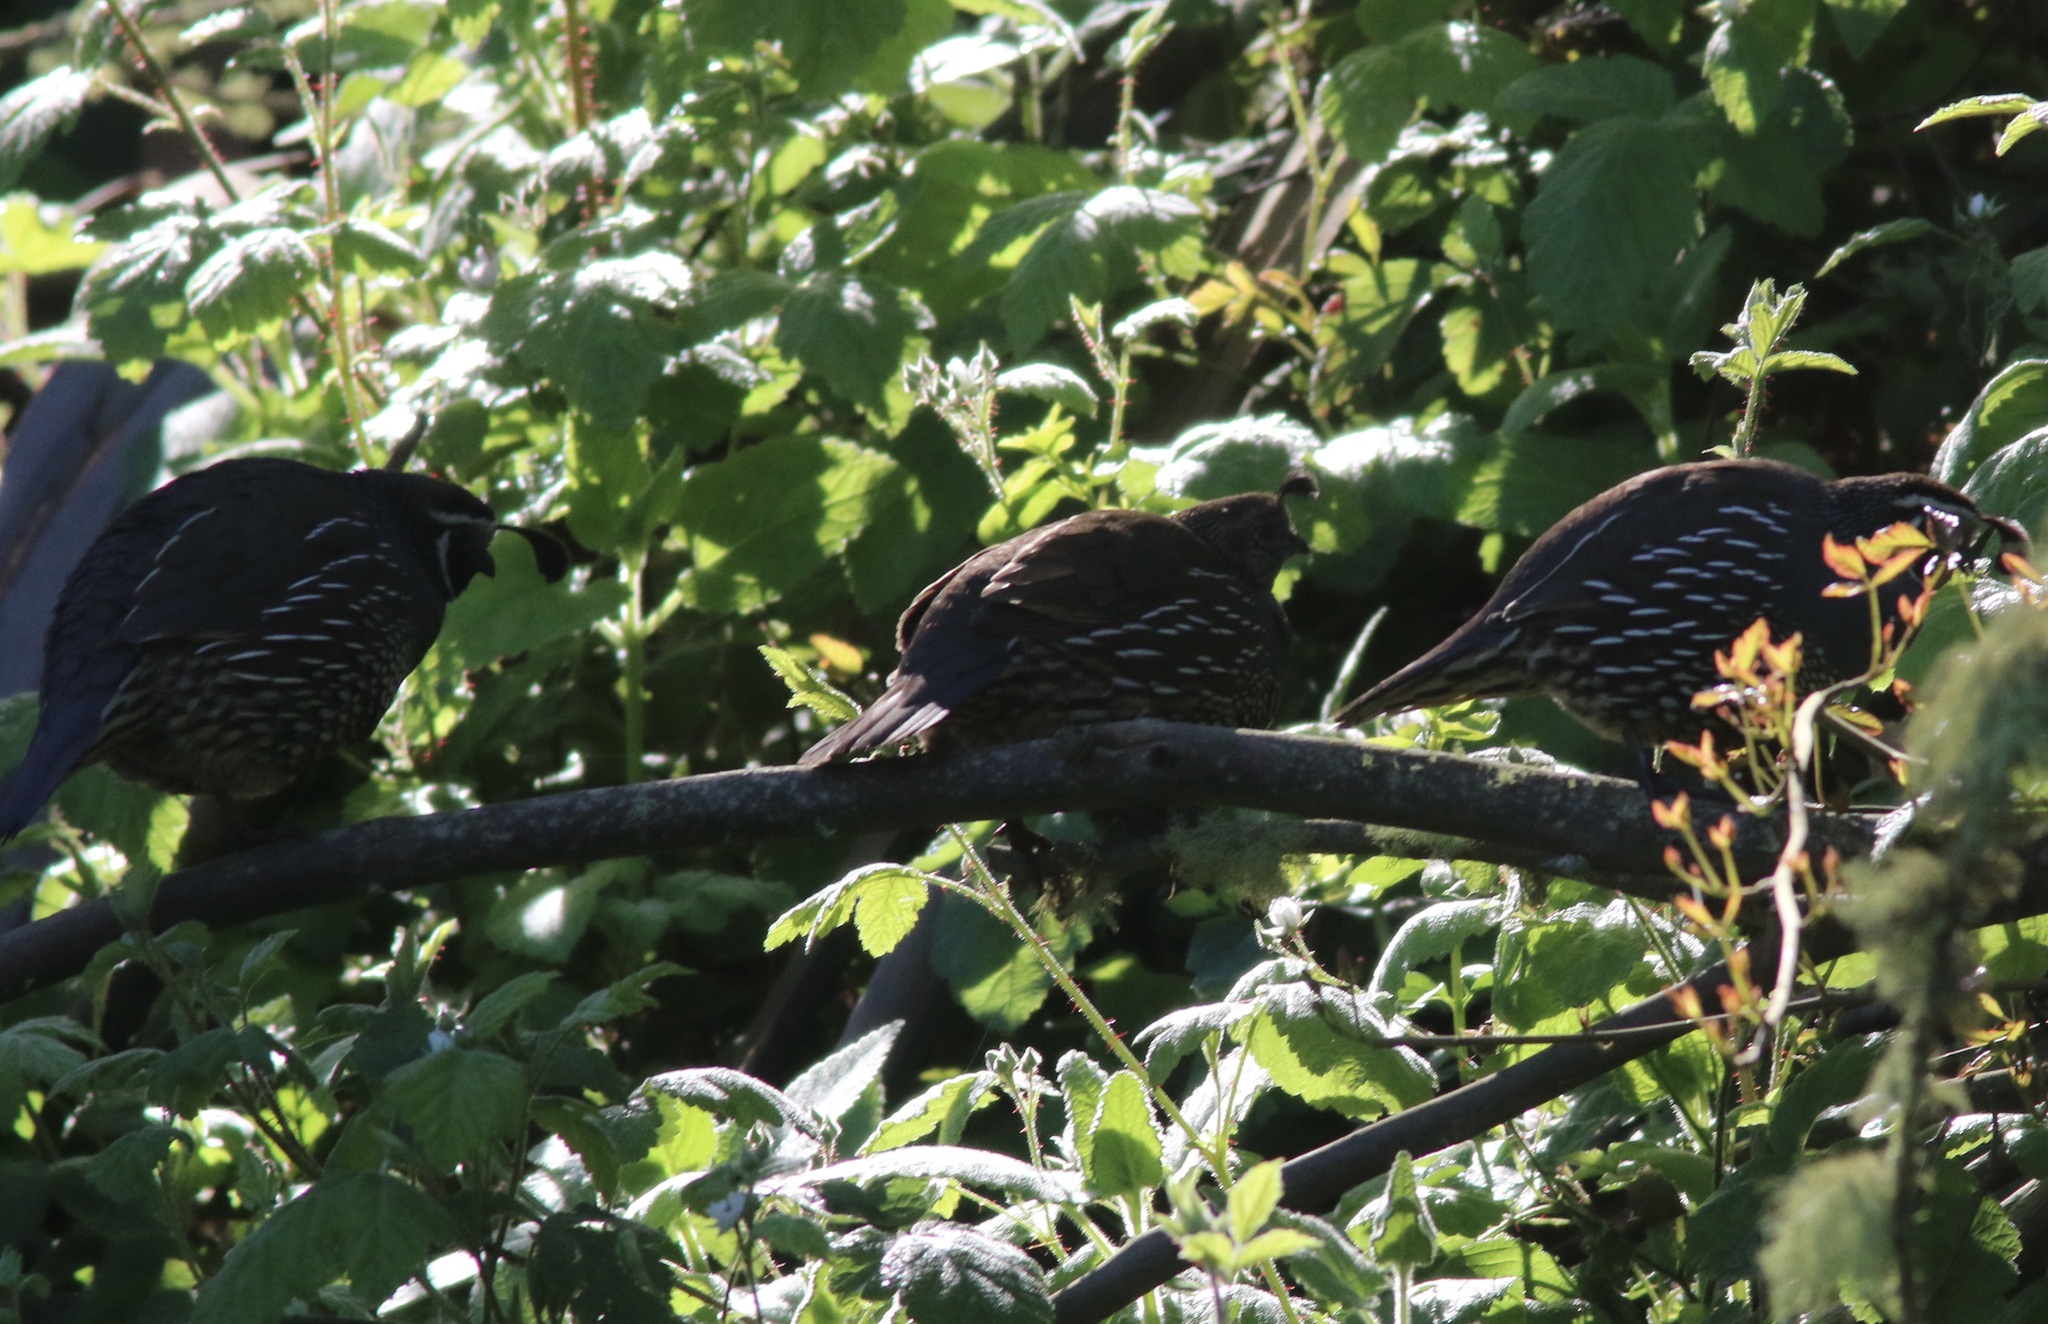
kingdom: Animalia
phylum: Chordata
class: Aves
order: Galliformes
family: Odontophoridae
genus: Callipepla
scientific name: Callipepla californica
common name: California quail
